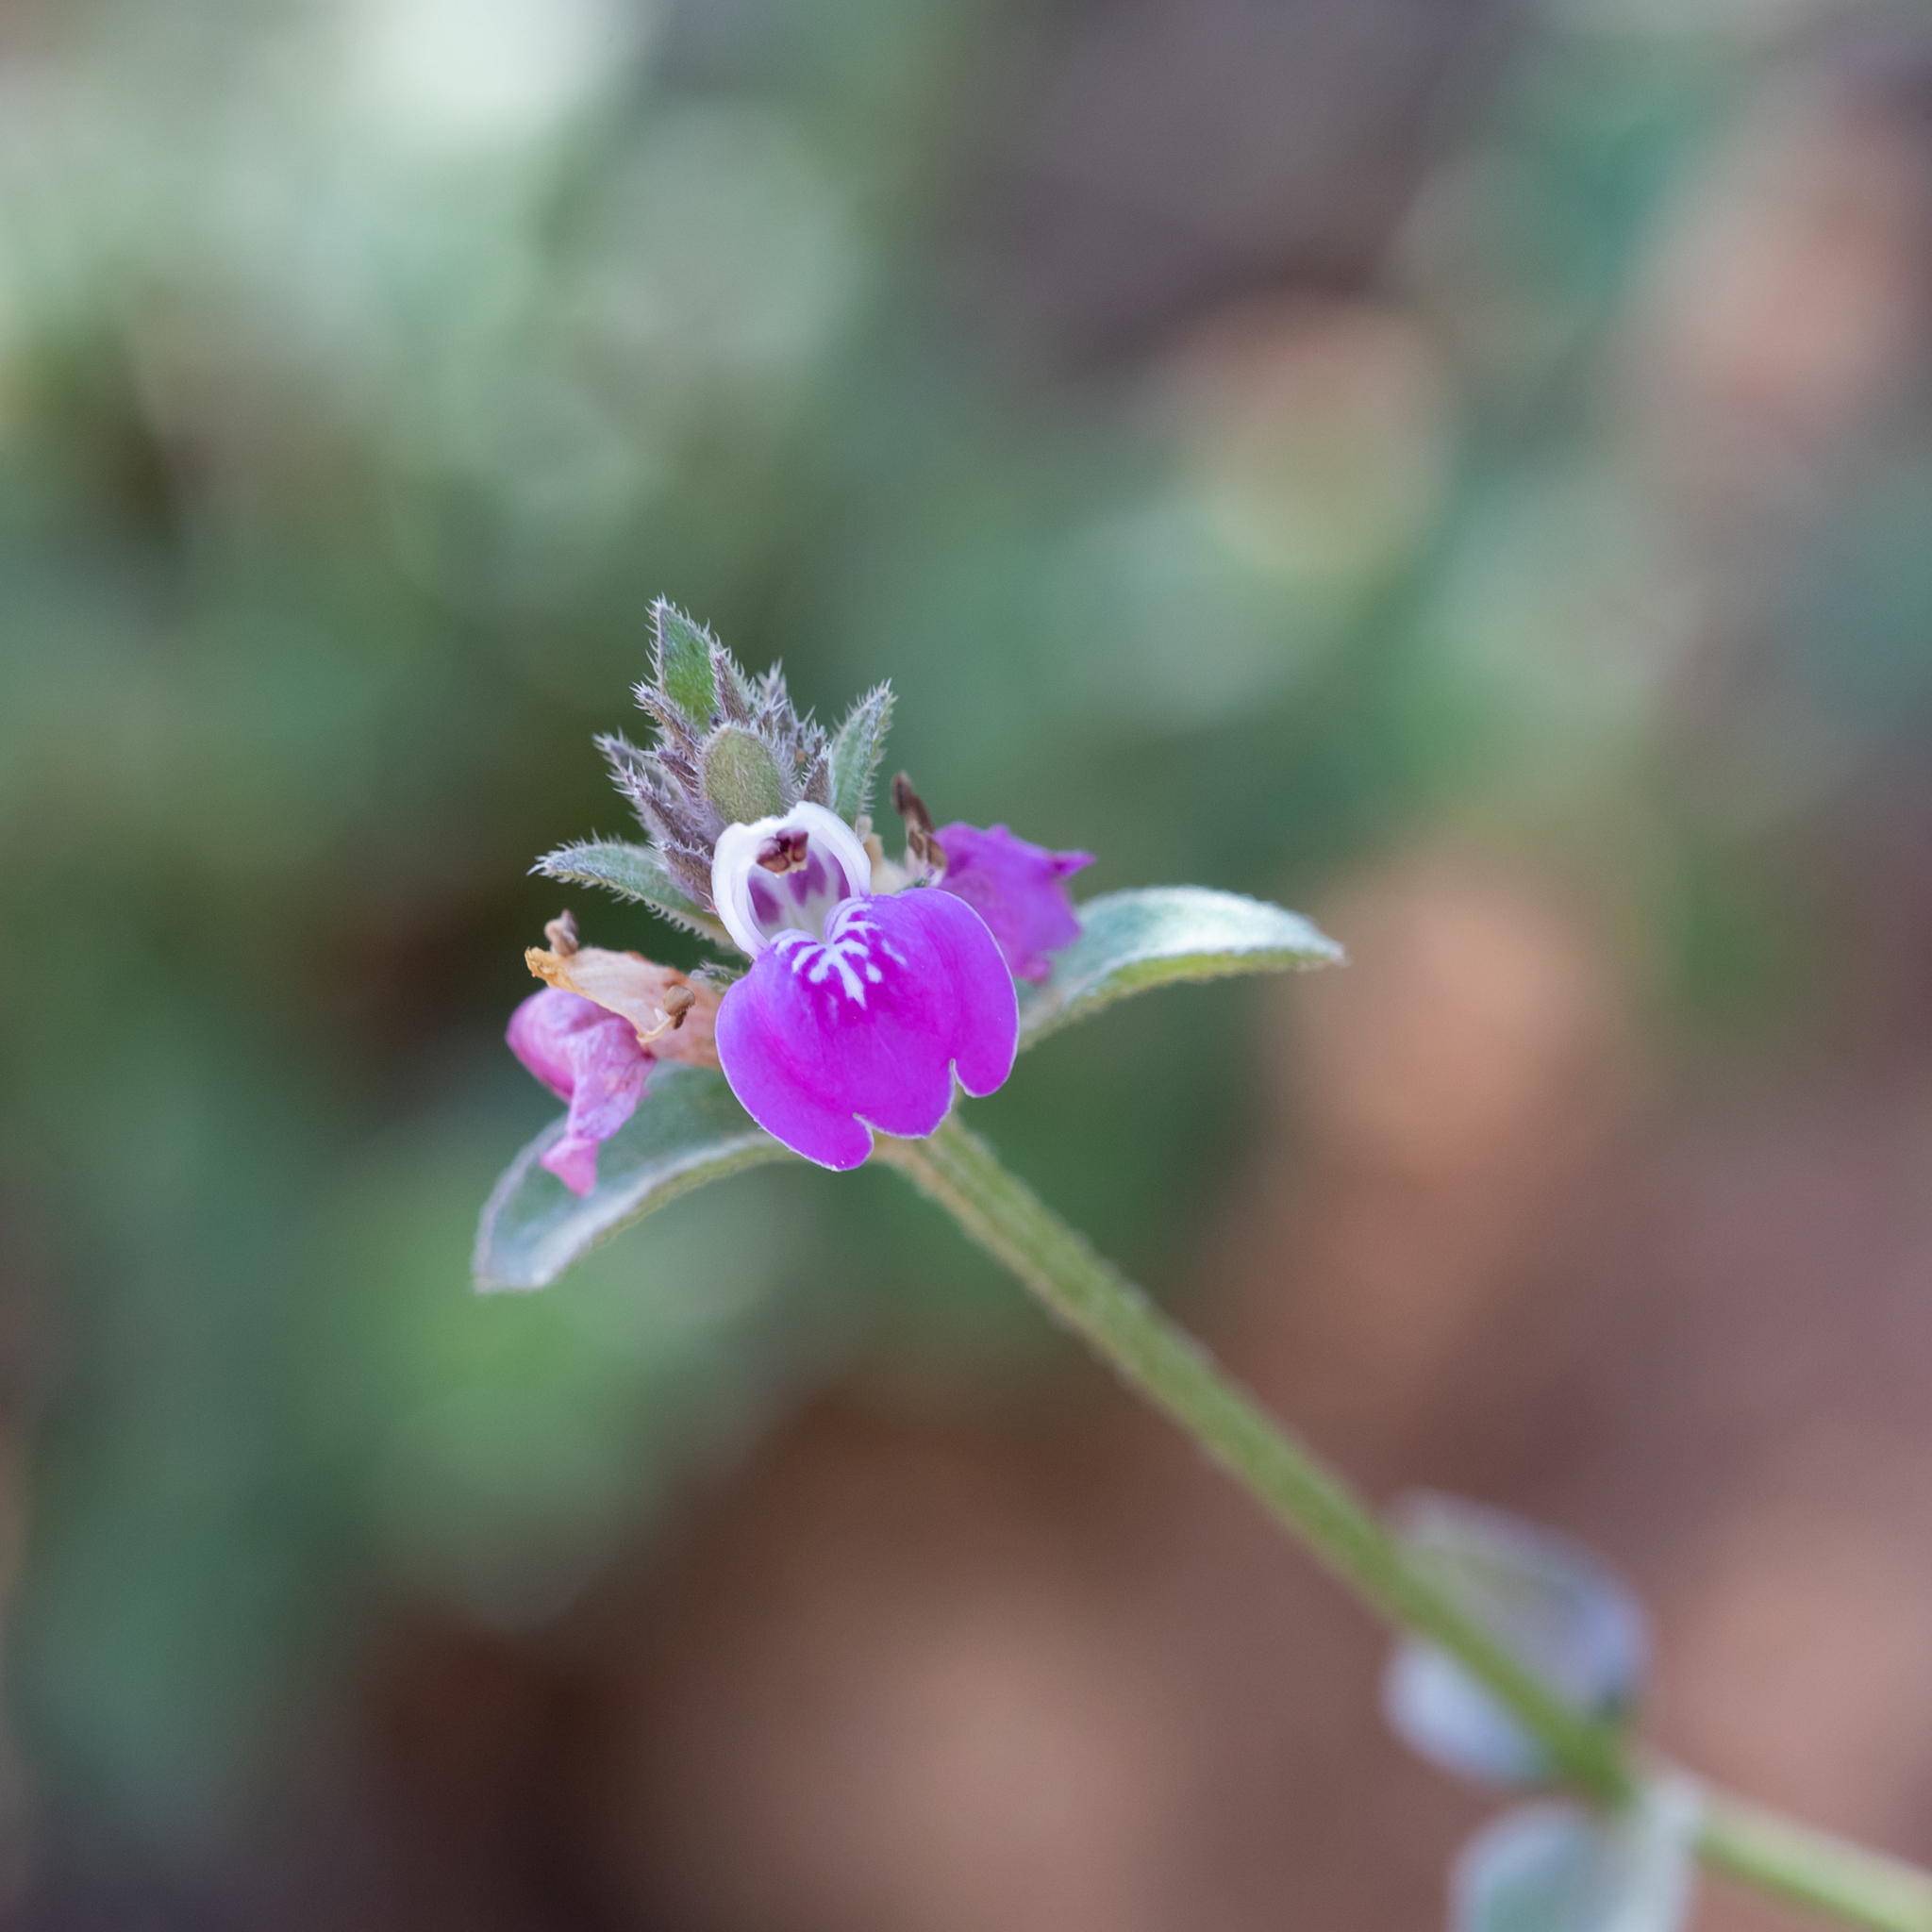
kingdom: Plantae
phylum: Tracheophyta
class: Magnoliopsida
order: Lamiales
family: Acanthaceae
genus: Rostellularia
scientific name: Rostellularia adscendens
